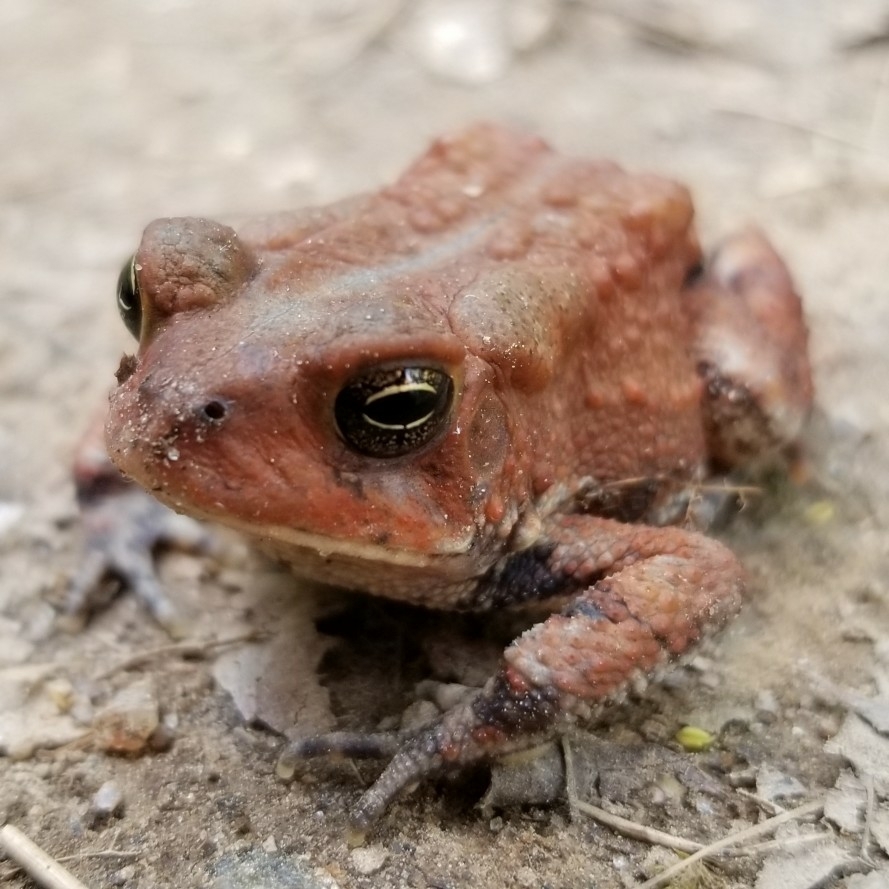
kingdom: Animalia
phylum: Chordata
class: Amphibia
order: Anura
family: Bufonidae
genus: Anaxyrus
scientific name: Anaxyrus americanus
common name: American toad
